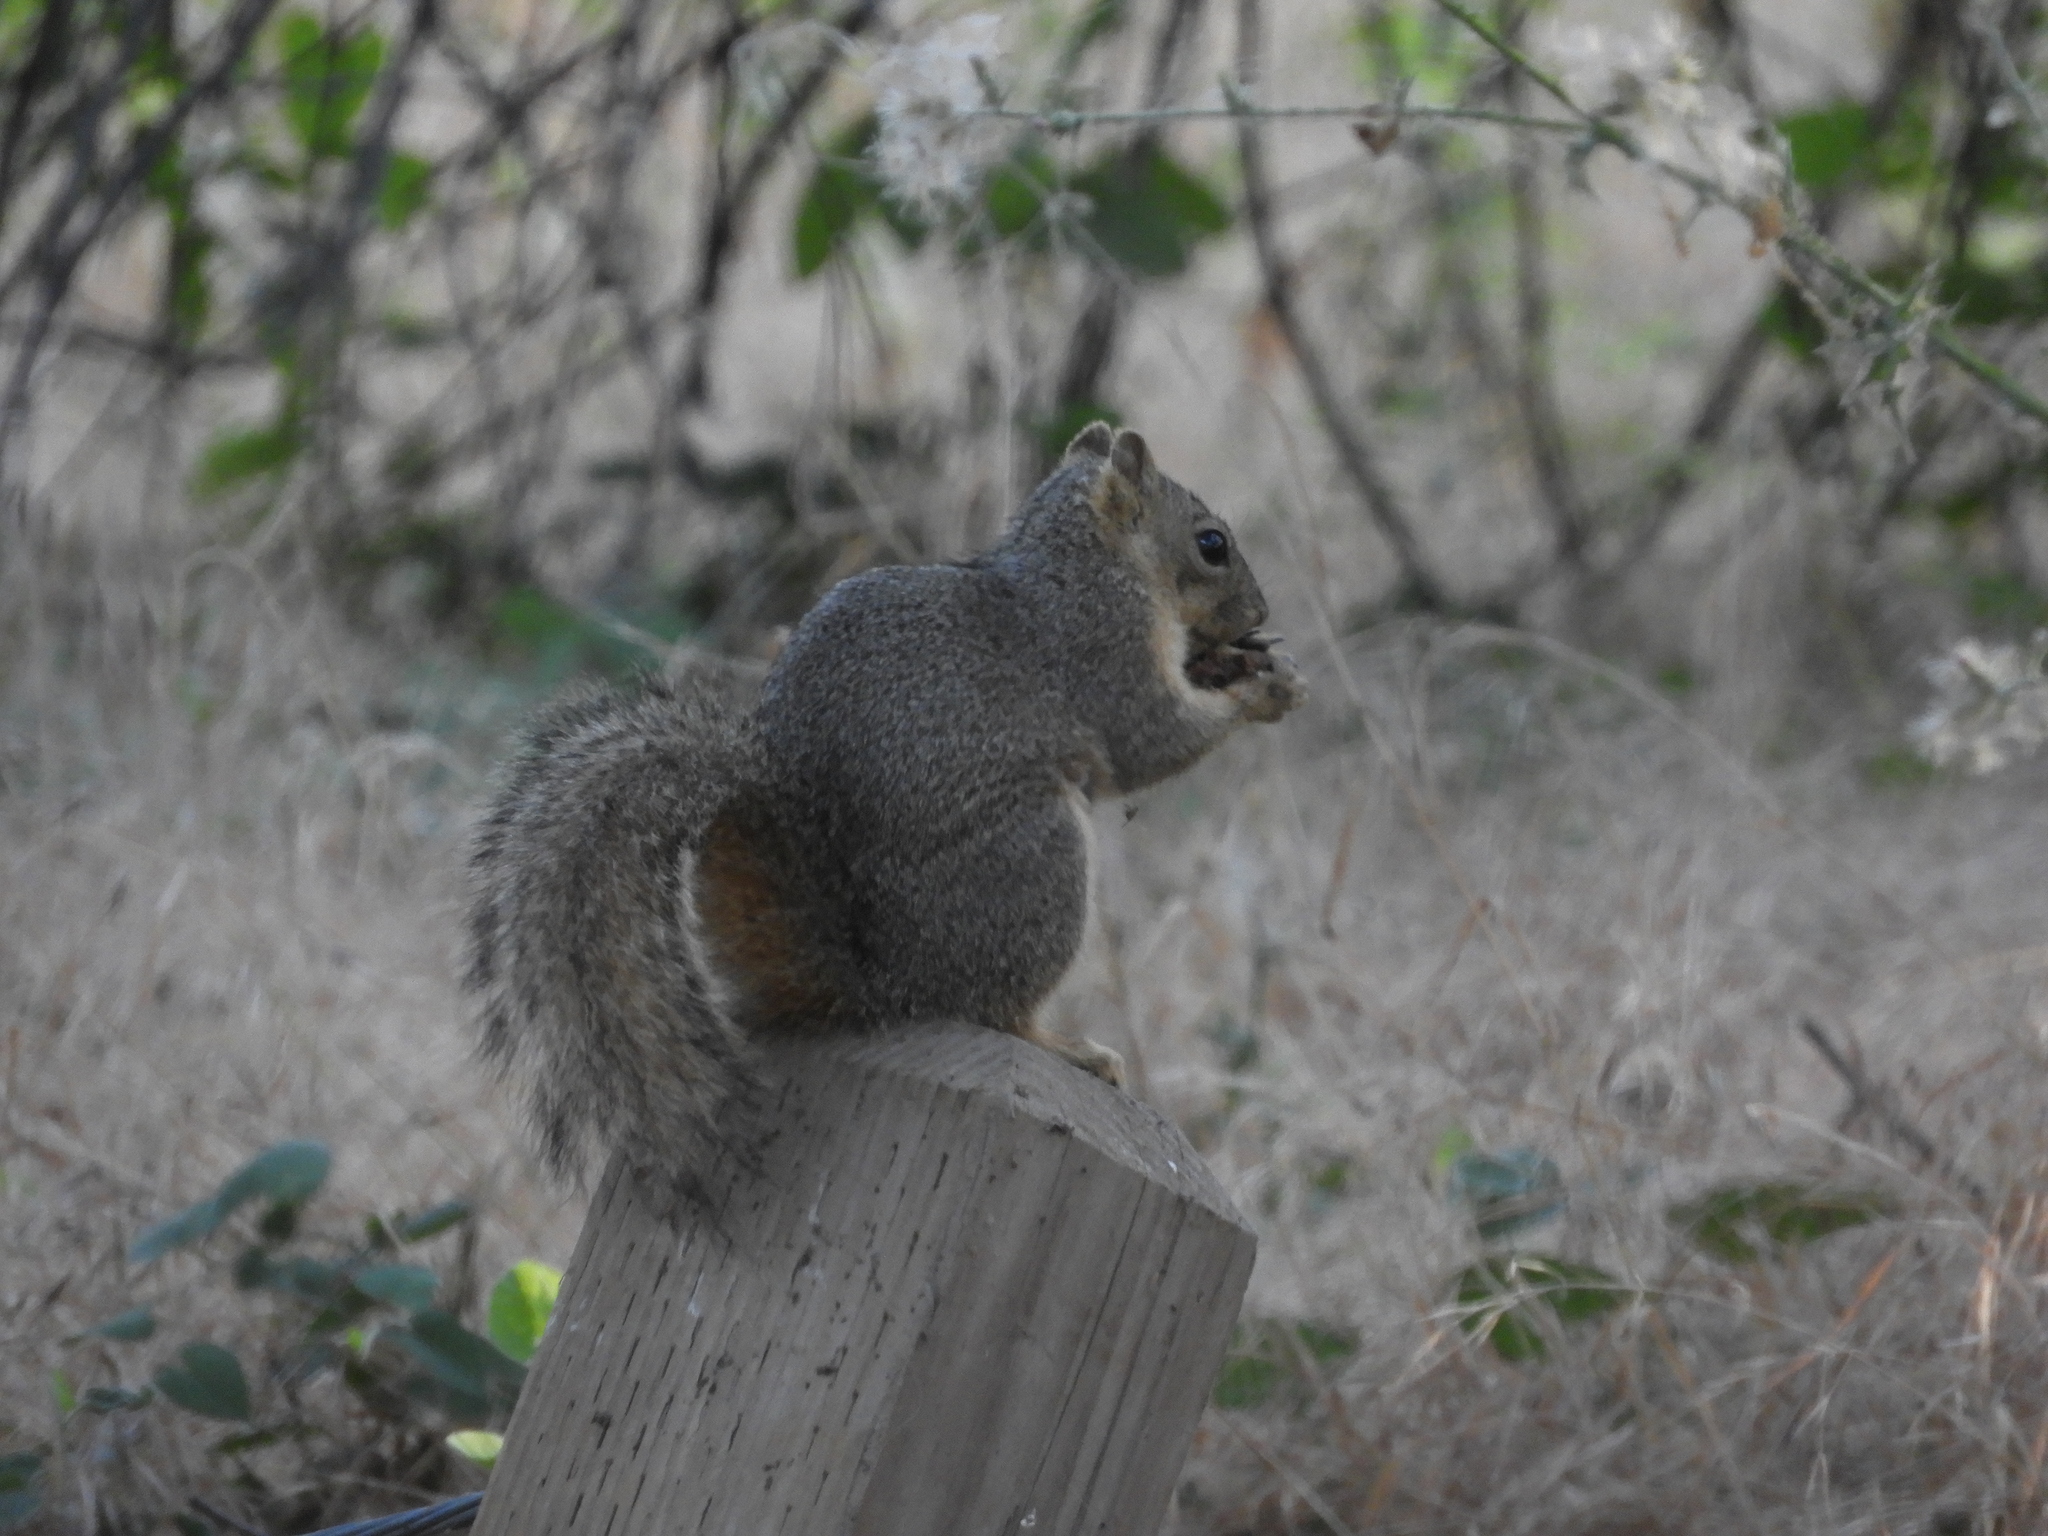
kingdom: Animalia
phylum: Chordata
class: Mammalia
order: Rodentia
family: Sciuridae
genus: Sciurus
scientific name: Sciurus niger
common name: Fox squirrel
